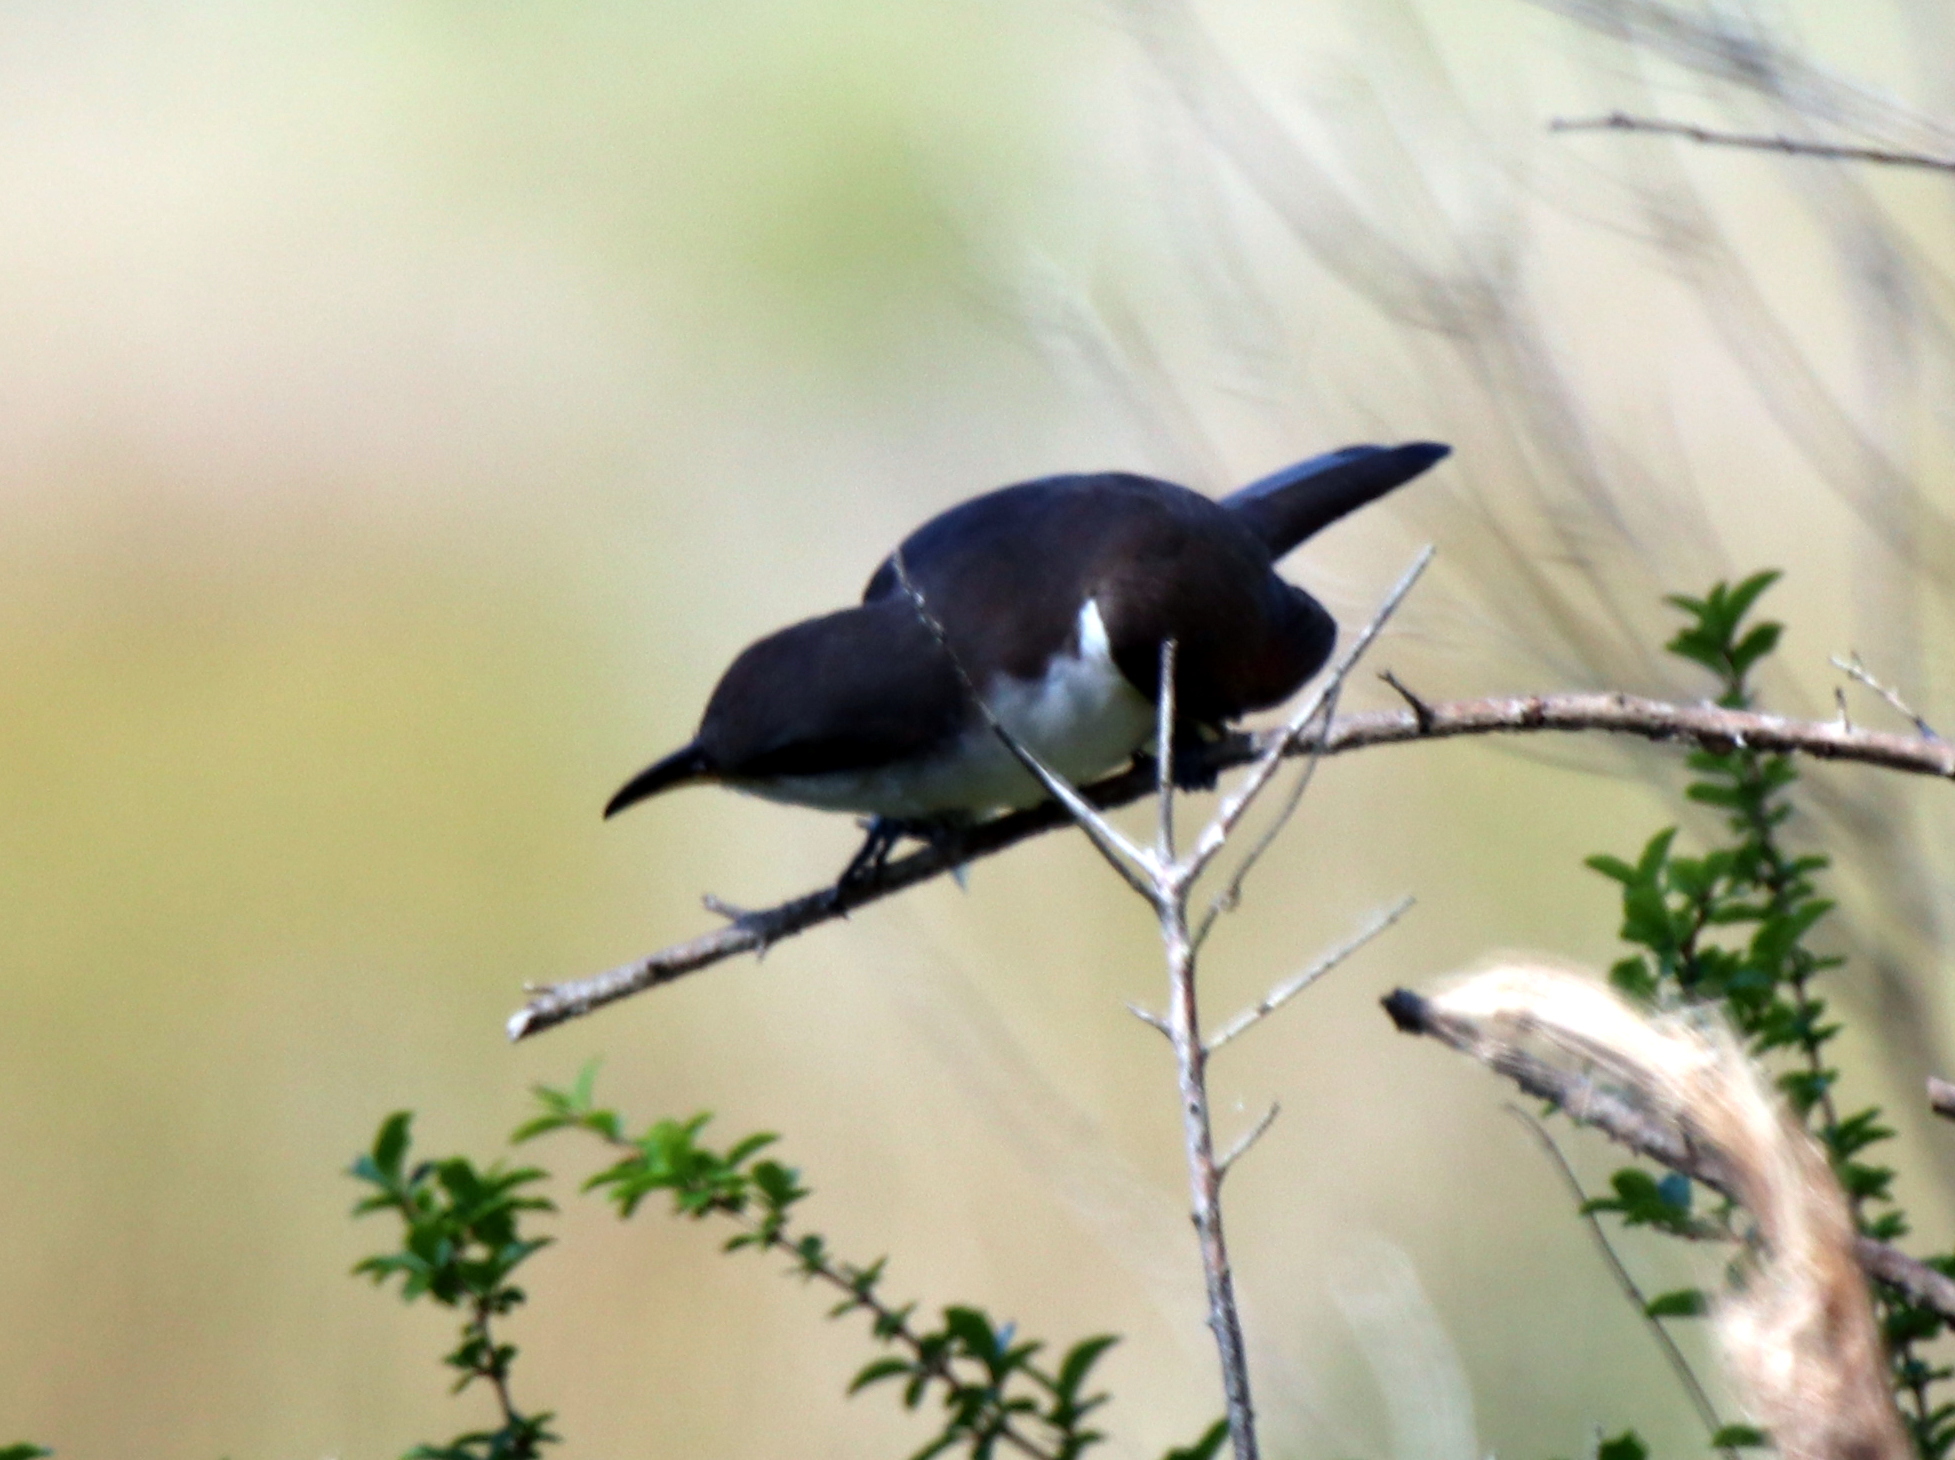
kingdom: Animalia
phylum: Chordata
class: Aves
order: Cuculiformes
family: Cuculidae
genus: Coccyzus
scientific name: Coccyzus americanus
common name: Yellow-billed cuckoo
